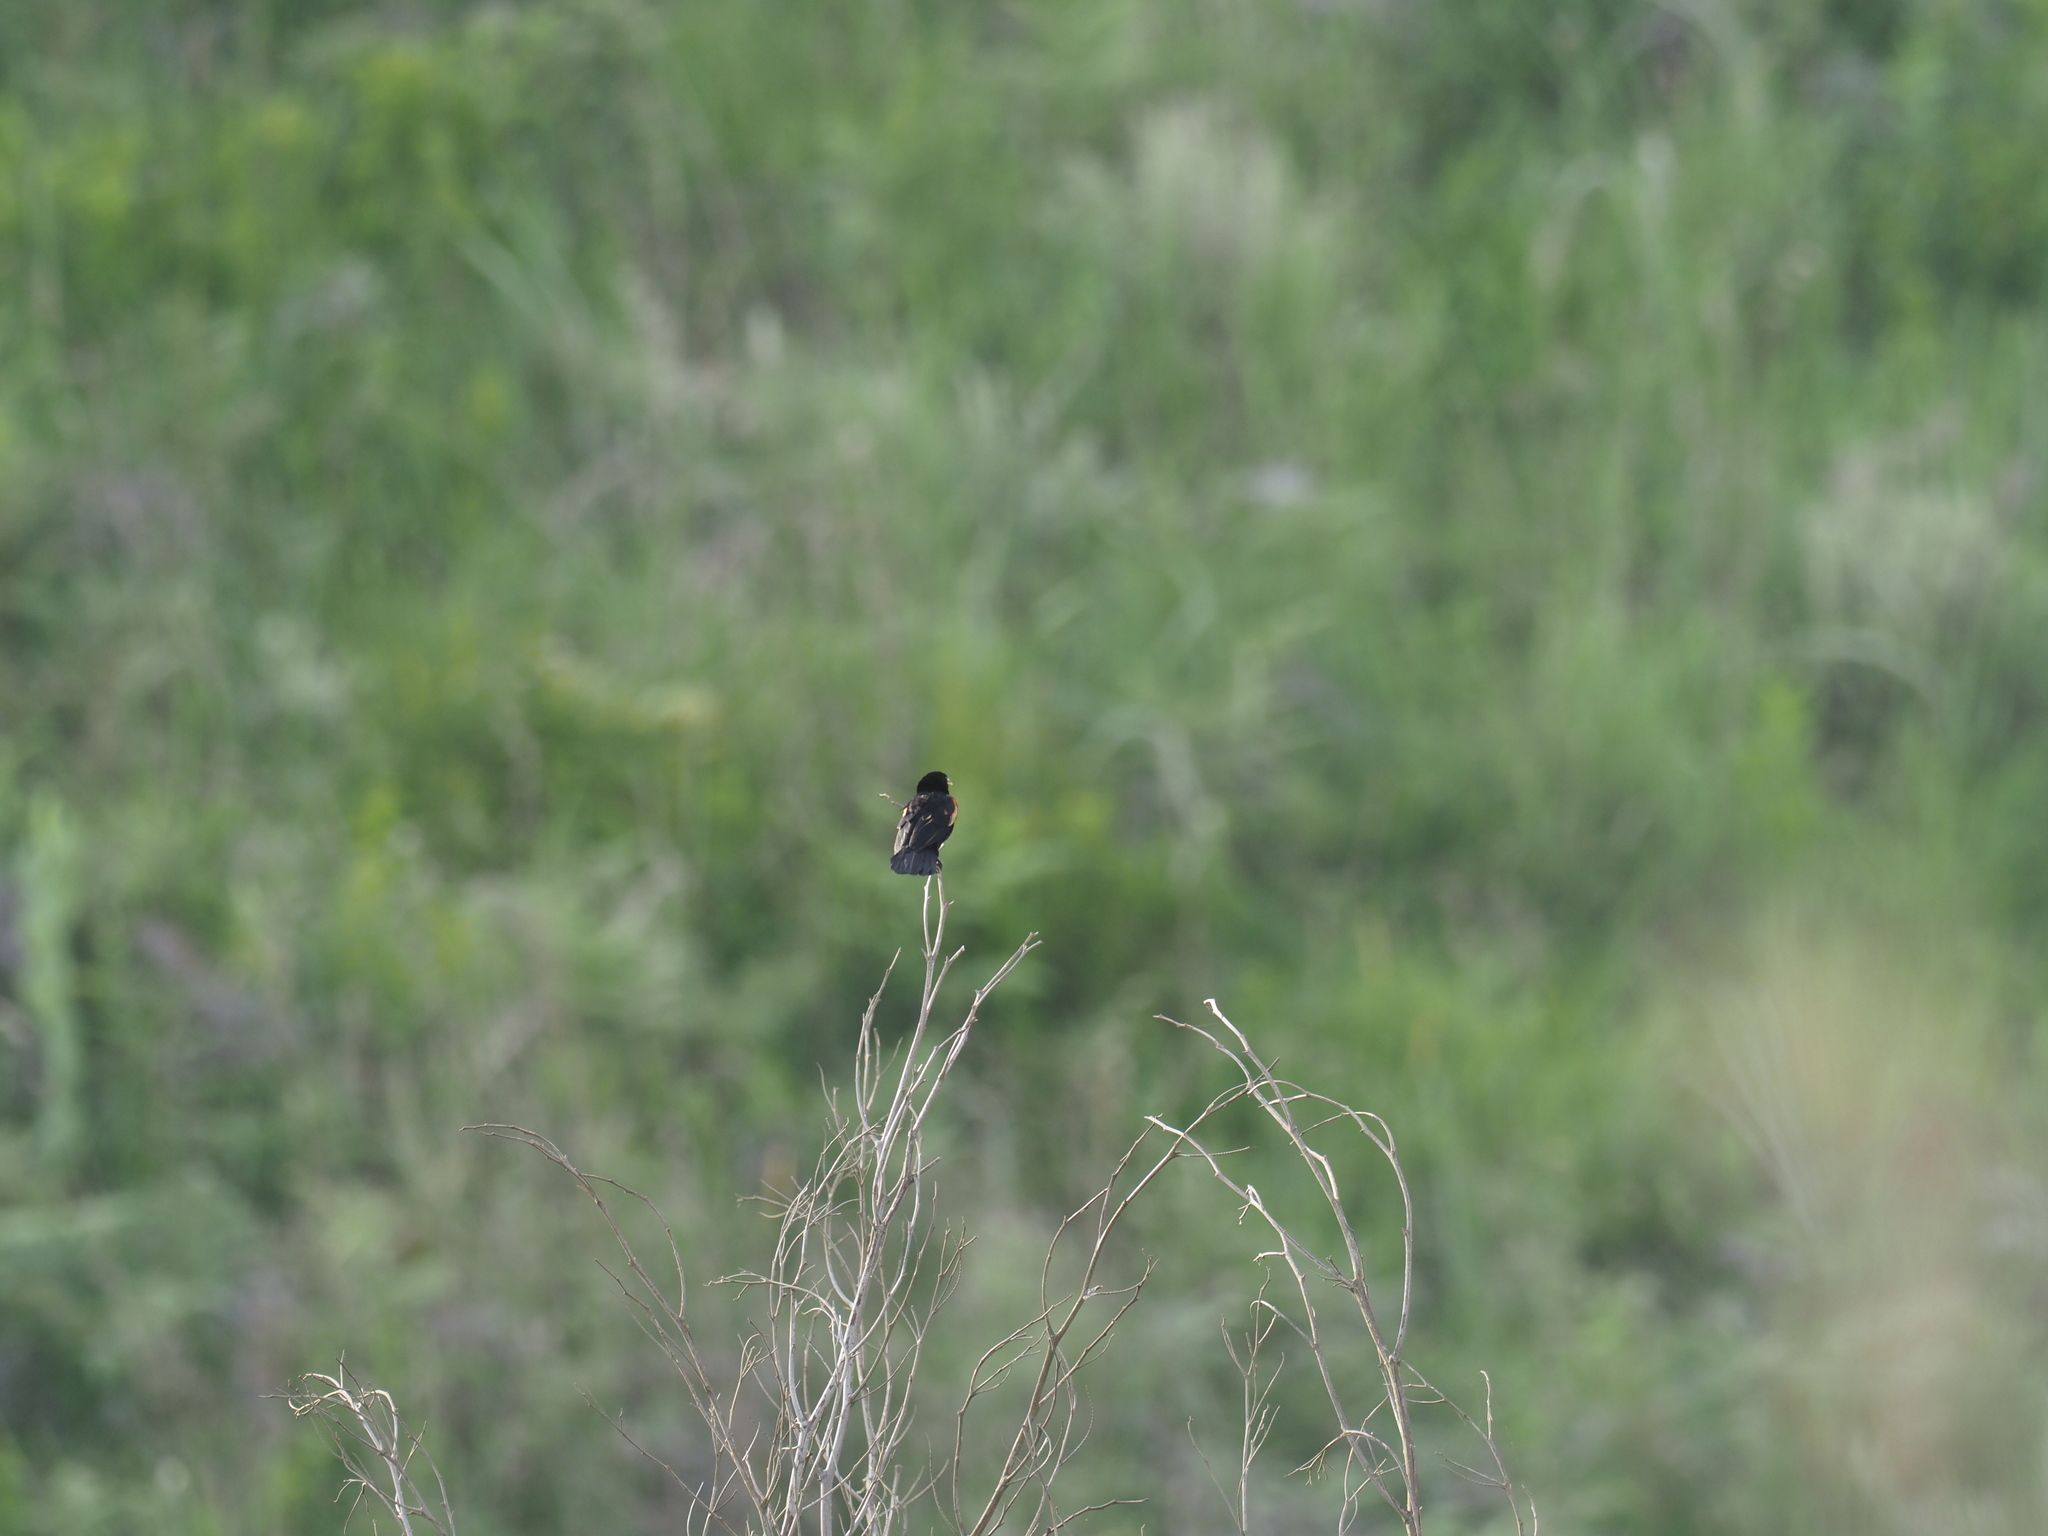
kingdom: Animalia
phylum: Chordata
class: Aves
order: Passeriformes
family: Ploceidae
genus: Euplectes
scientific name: Euplectes axillaris
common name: Fan-tailed widowbird
